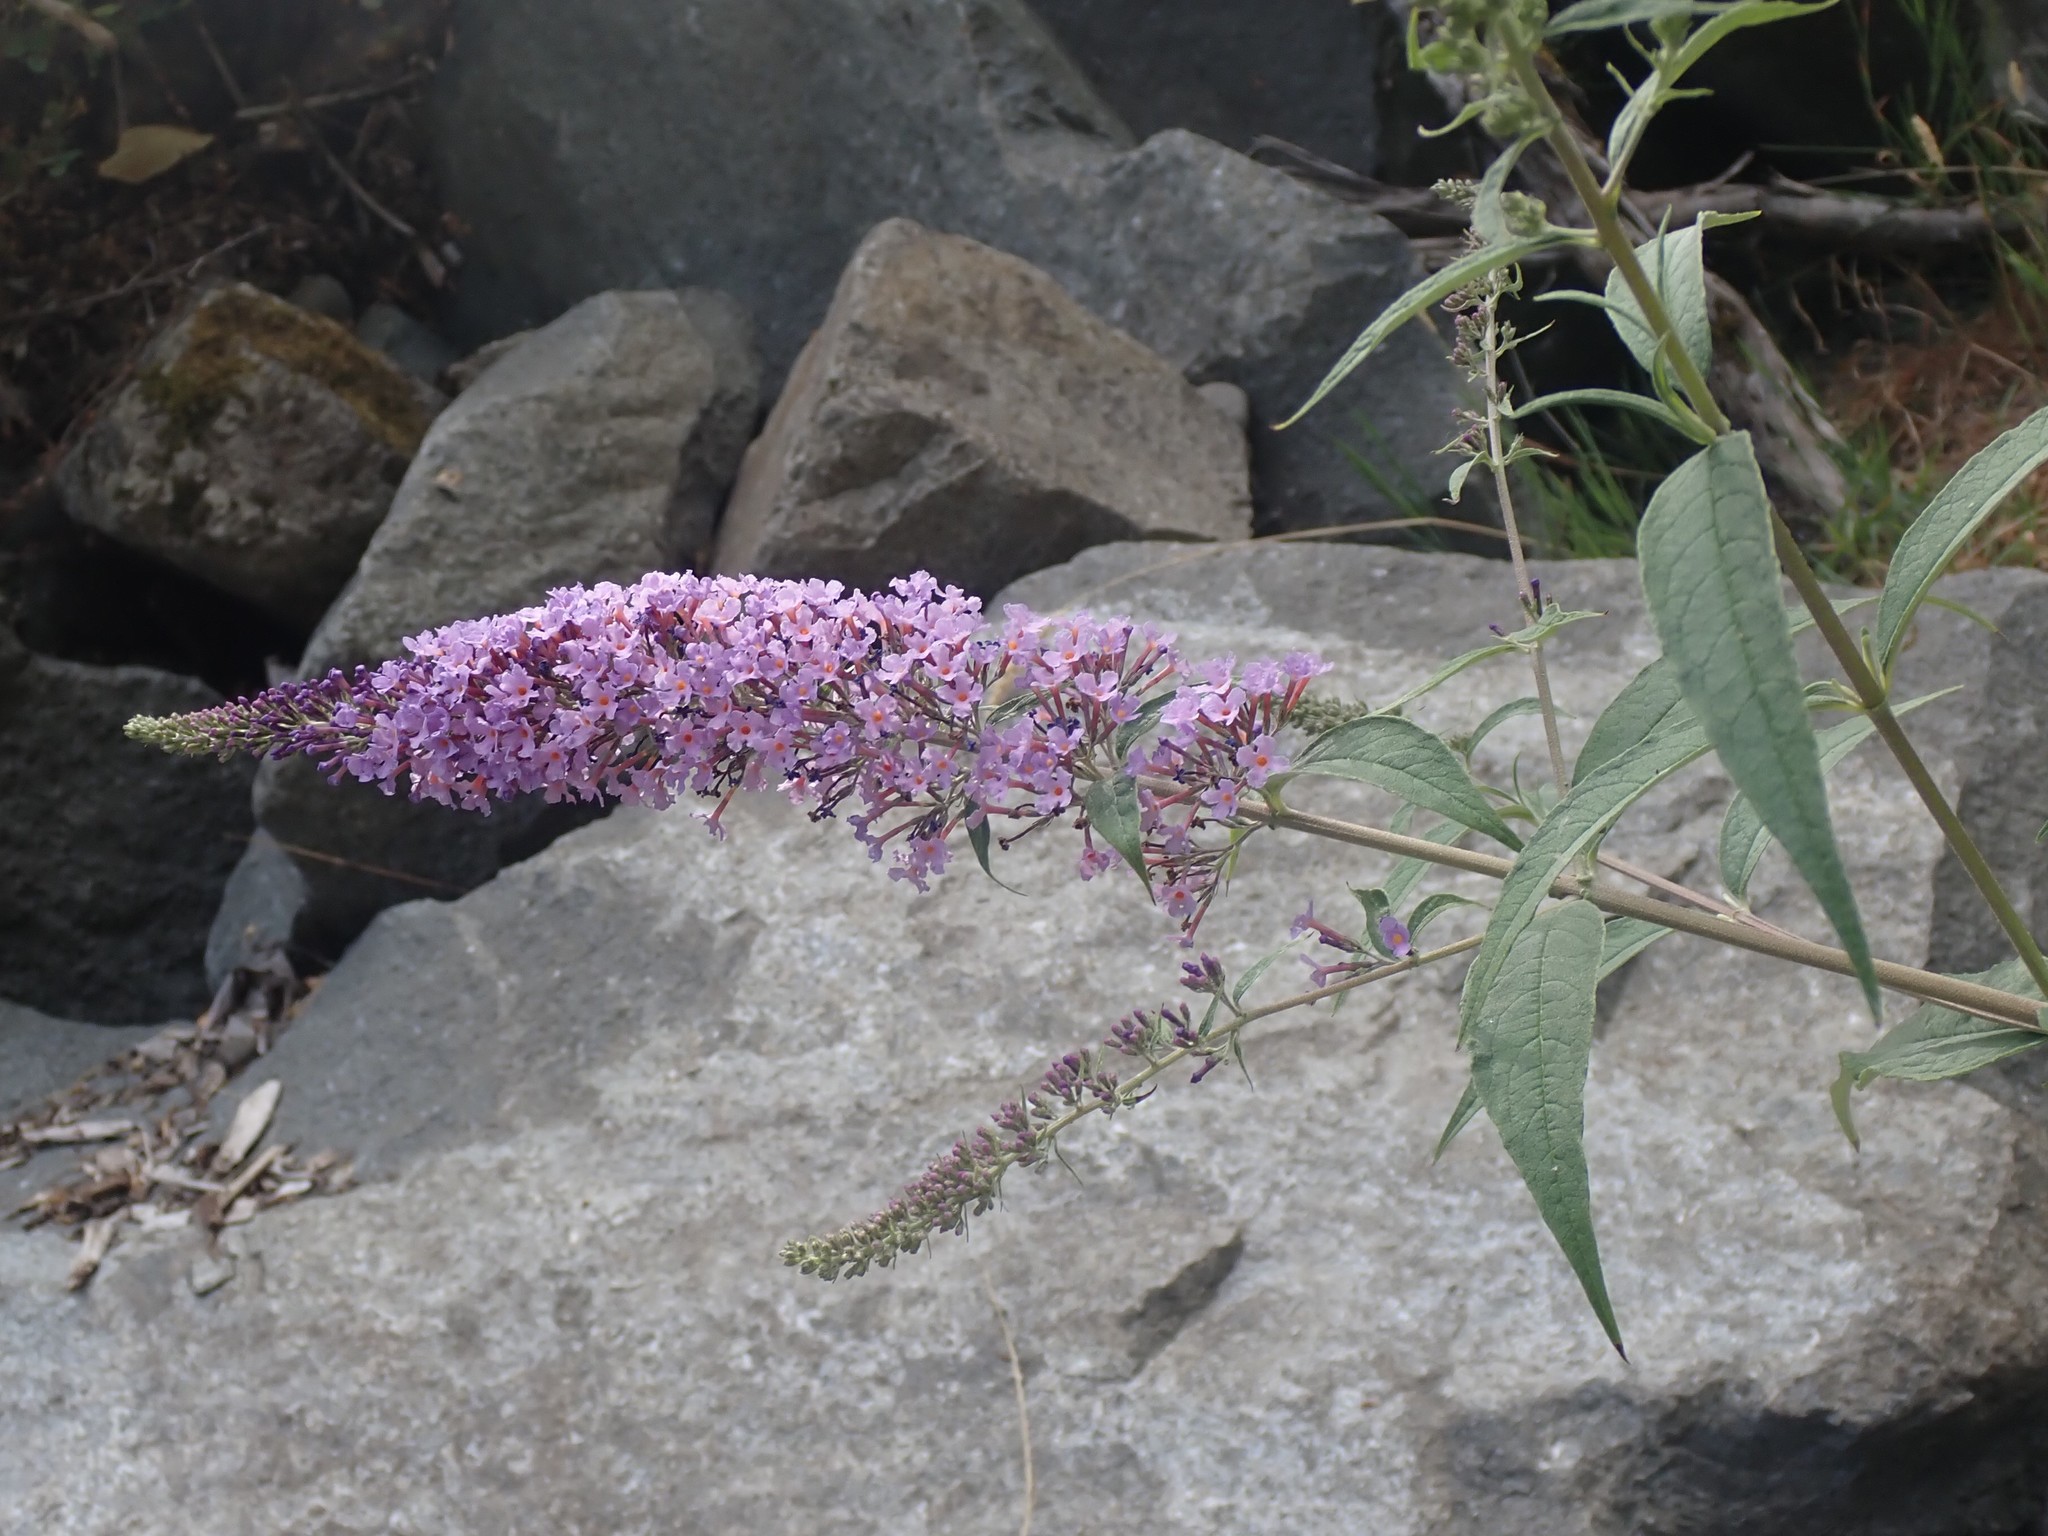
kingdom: Plantae
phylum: Tracheophyta
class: Magnoliopsida
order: Lamiales
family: Scrophulariaceae
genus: Buddleja
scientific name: Buddleja davidii
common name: Butterfly-bush
